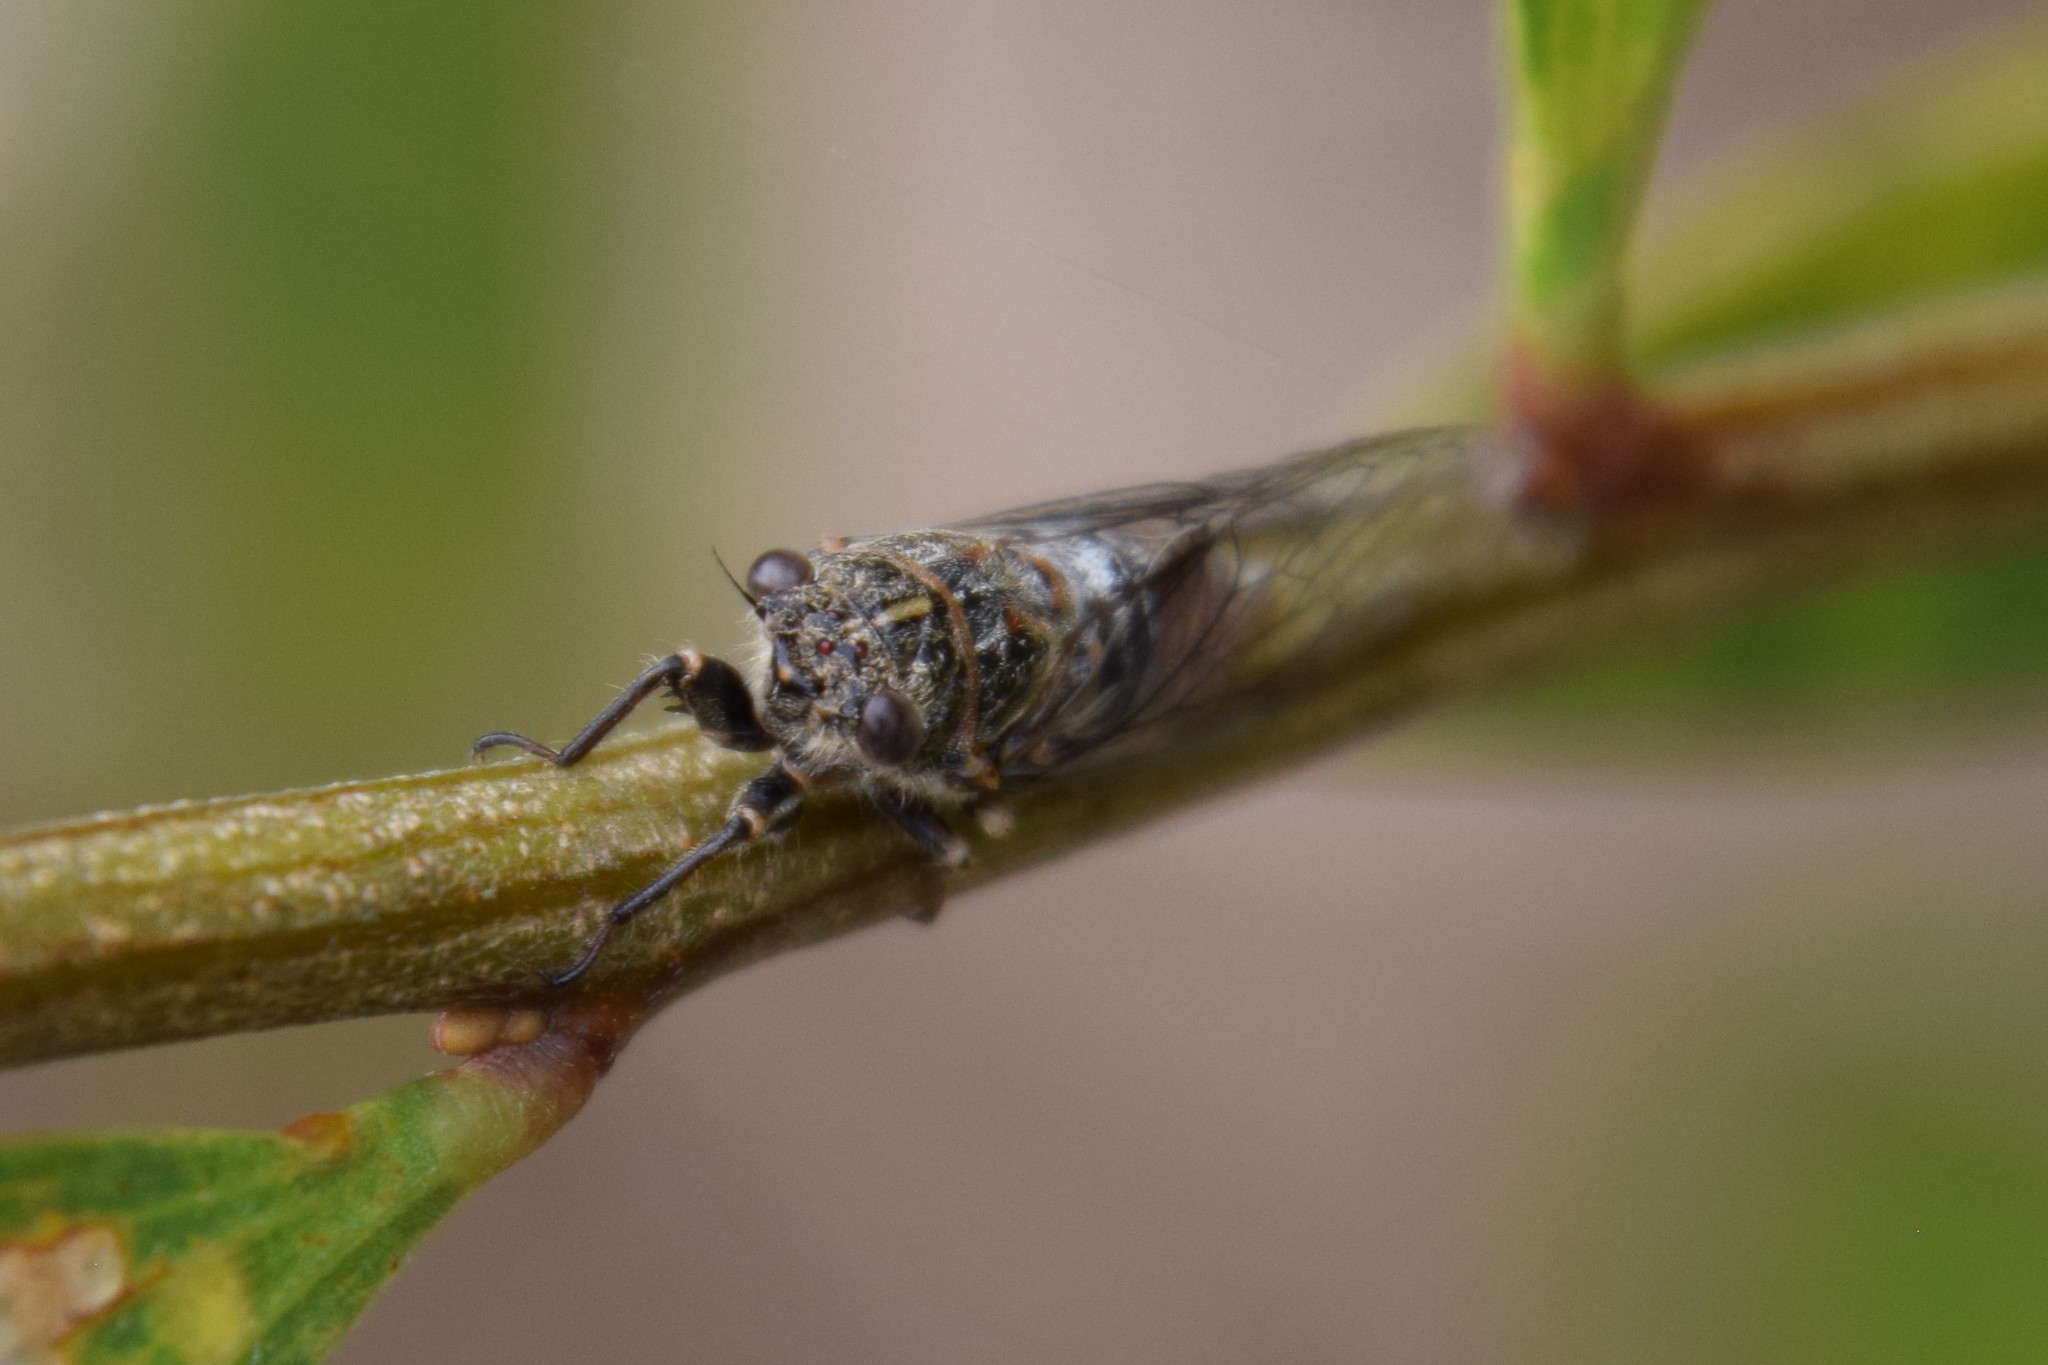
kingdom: Animalia
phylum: Arthropoda
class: Insecta
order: Hemiptera
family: Cicadidae
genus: Haemopsalta
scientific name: Haemopsalta aktites
